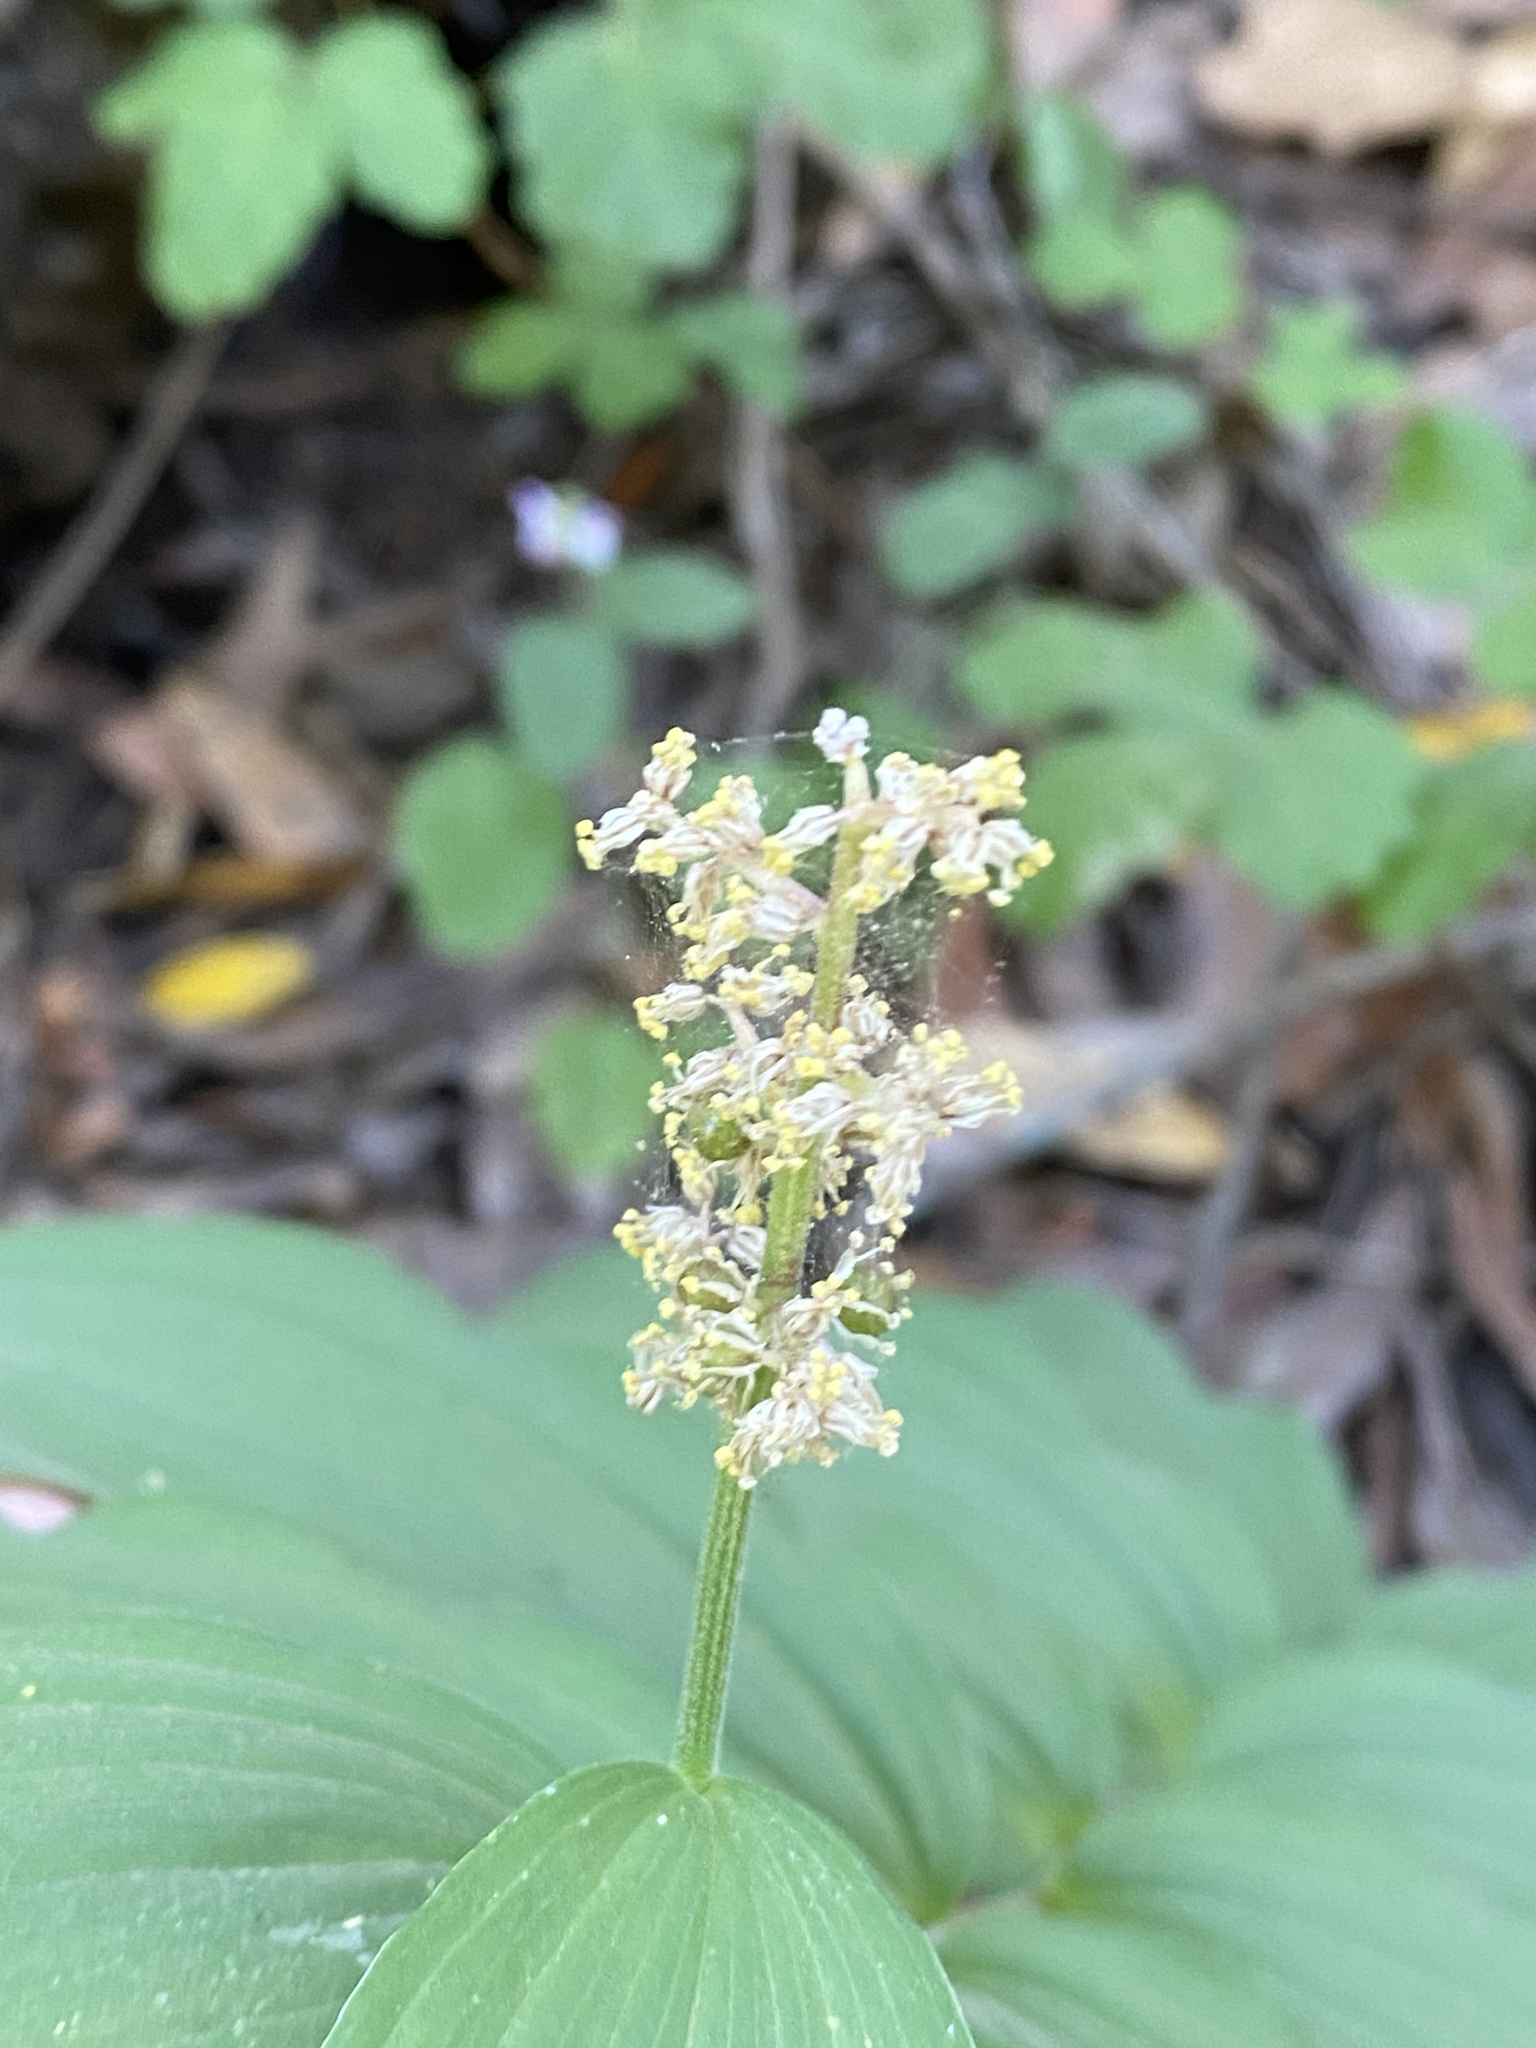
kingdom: Plantae
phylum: Tracheophyta
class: Liliopsida
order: Asparagales
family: Asparagaceae
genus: Maianthemum
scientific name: Maianthemum racemosum
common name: False spikenard
